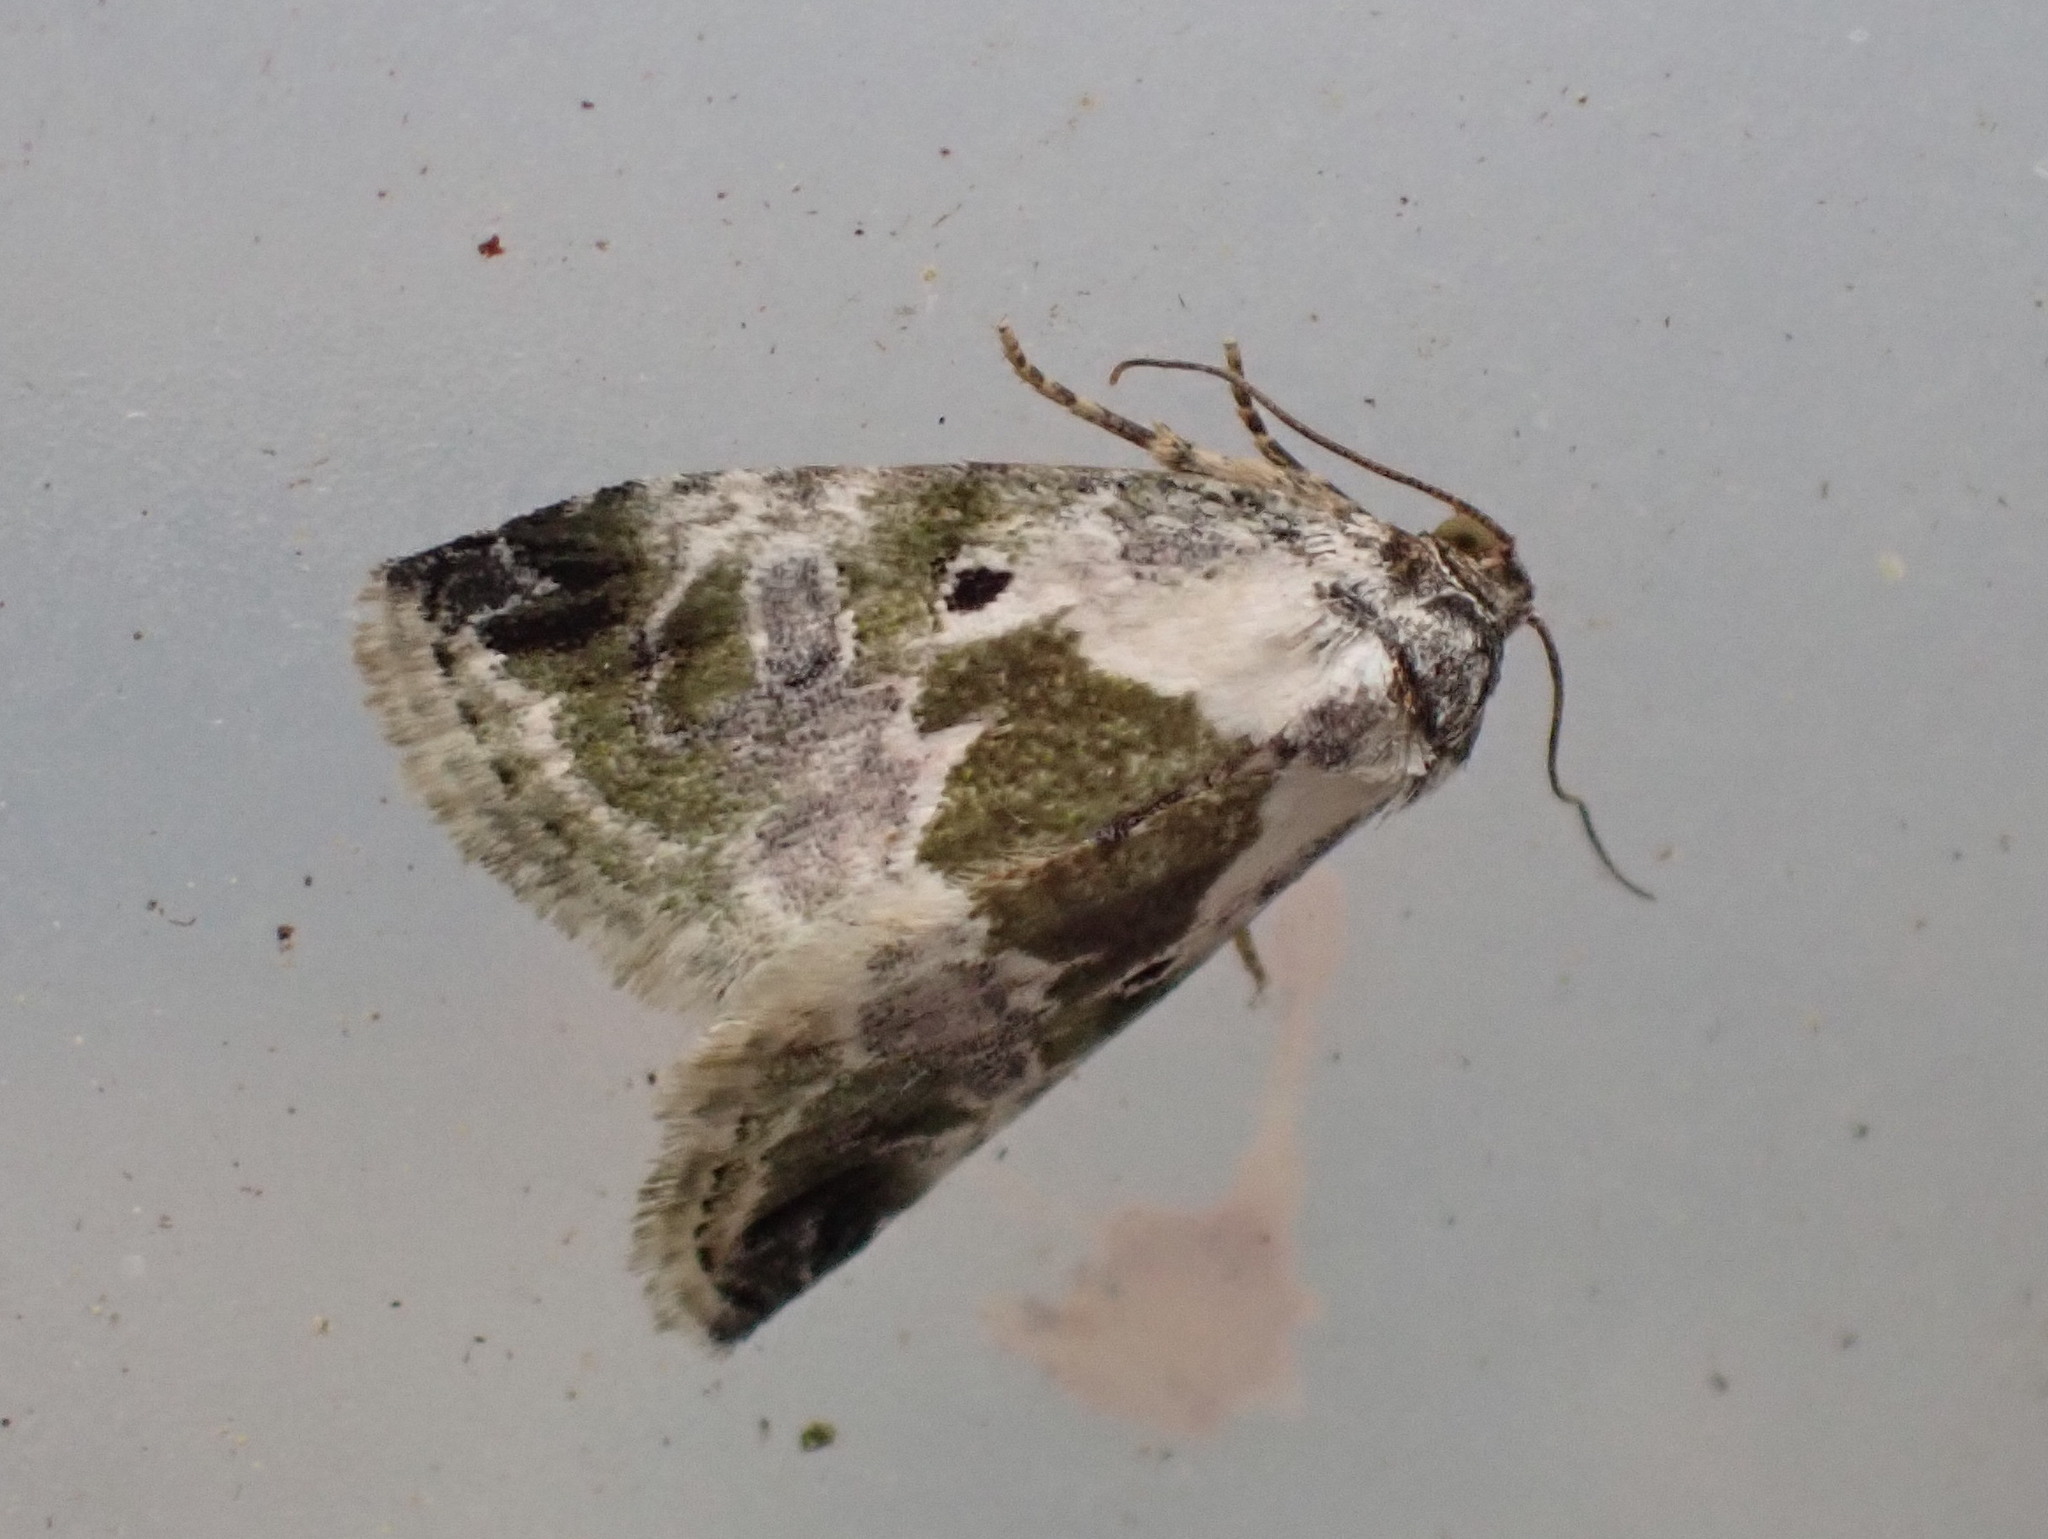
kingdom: Animalia
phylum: Arthropoda
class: Insecta
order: Lepidoptera
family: Noctuidae
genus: Maliattha
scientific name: Maliattha synochitis
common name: Black-dotted glyph
